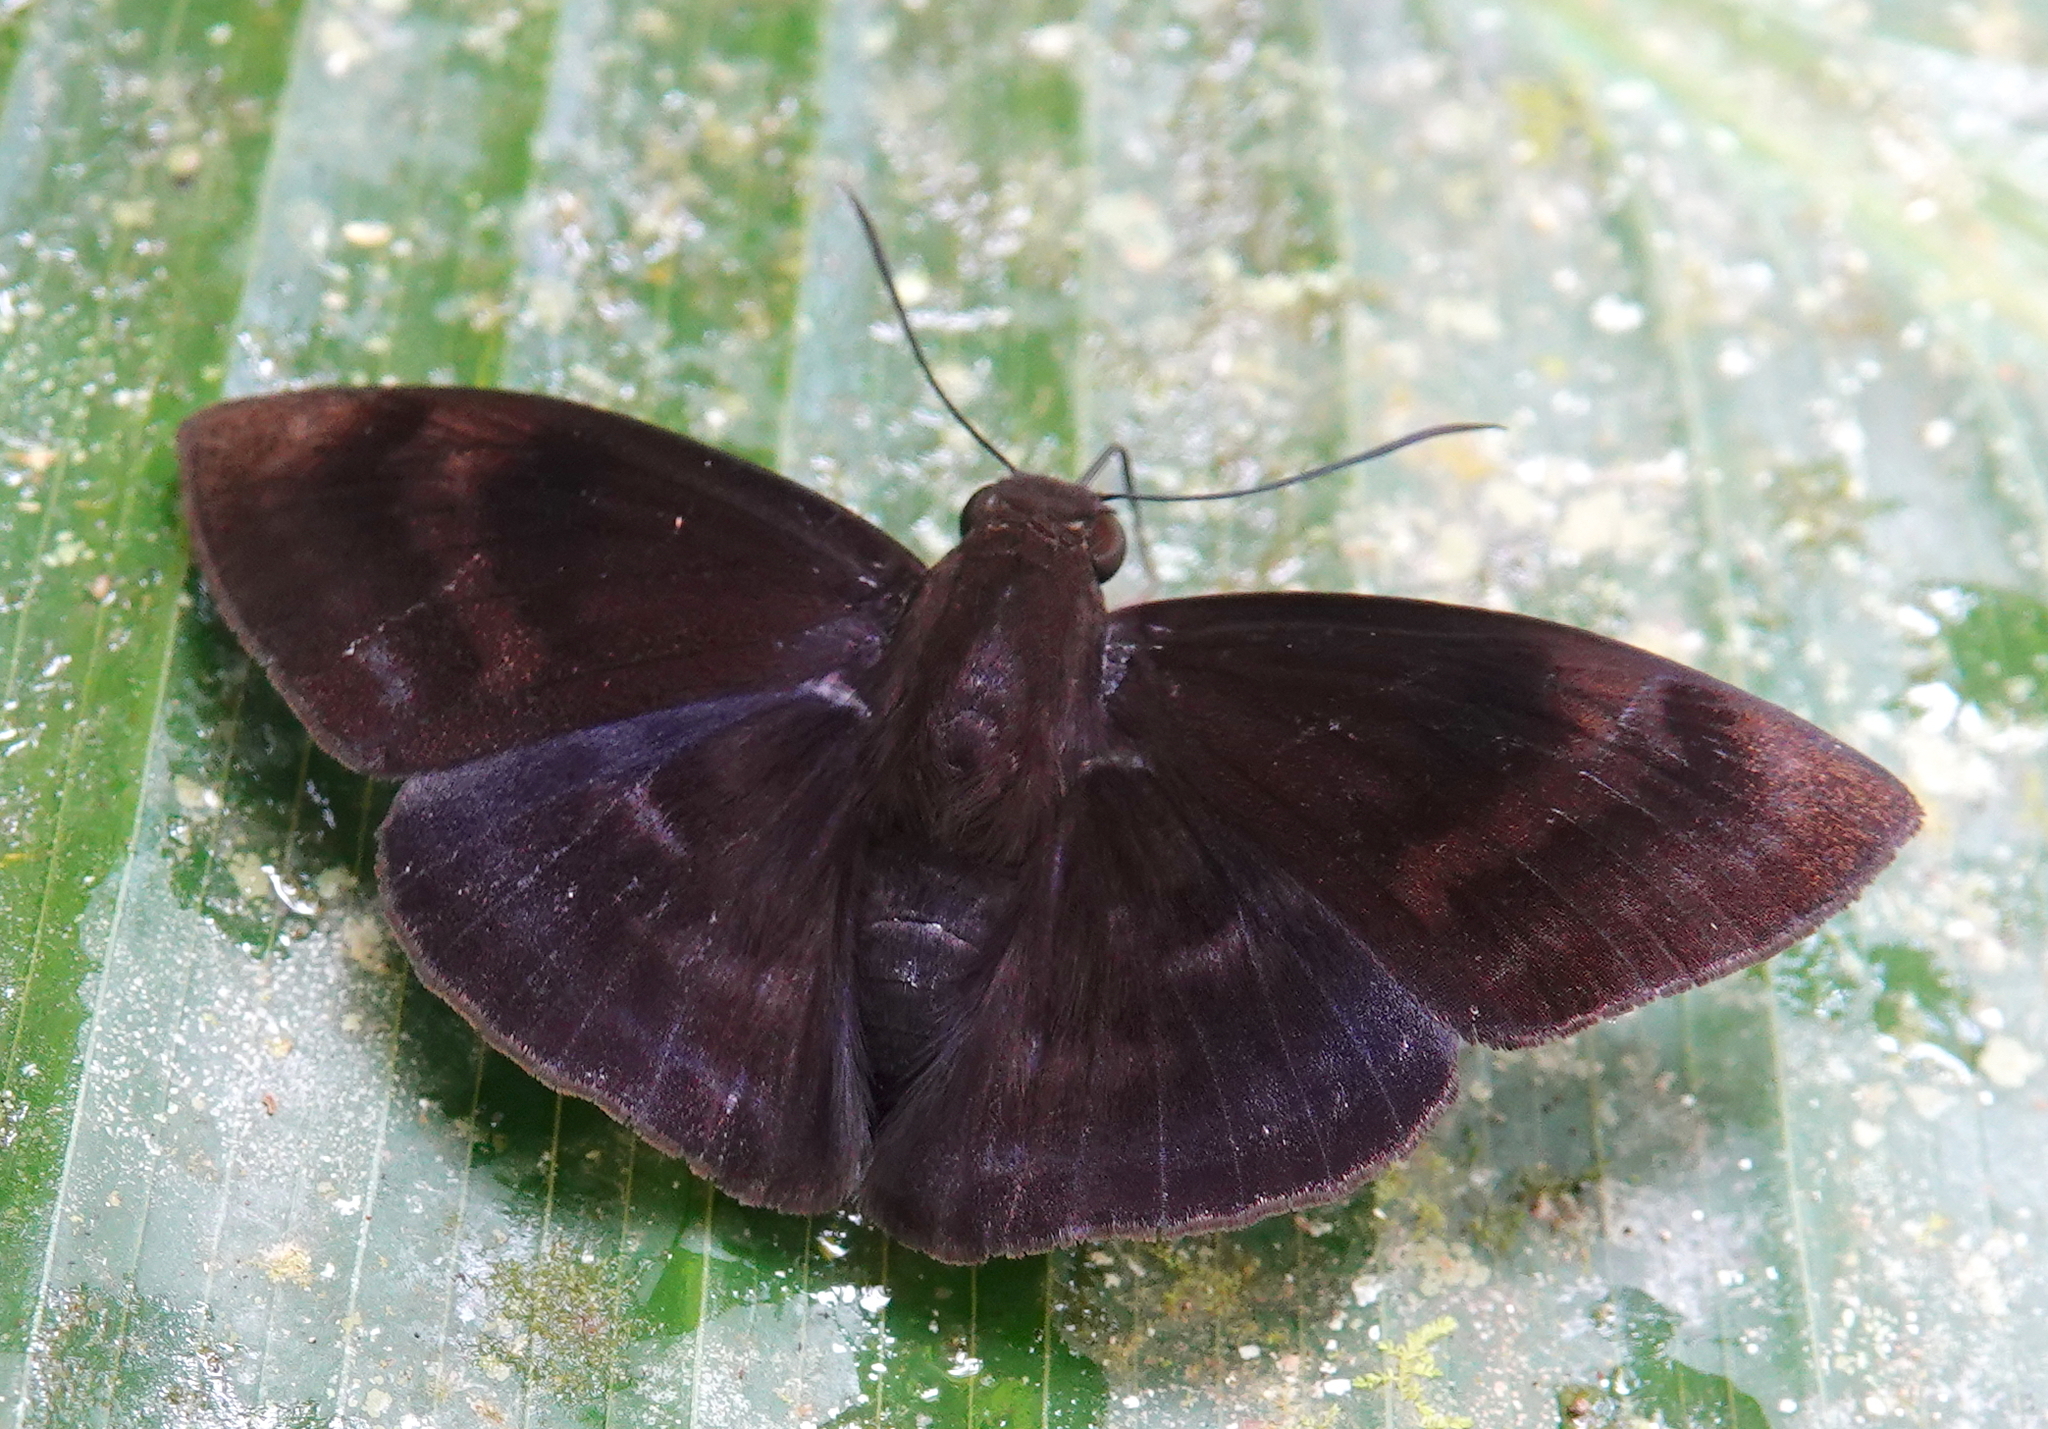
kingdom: Animalia
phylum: Arthropoda
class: Insecta
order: Lepidoptera
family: Hesperiidae
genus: Aethilla
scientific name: Aethilla echina
